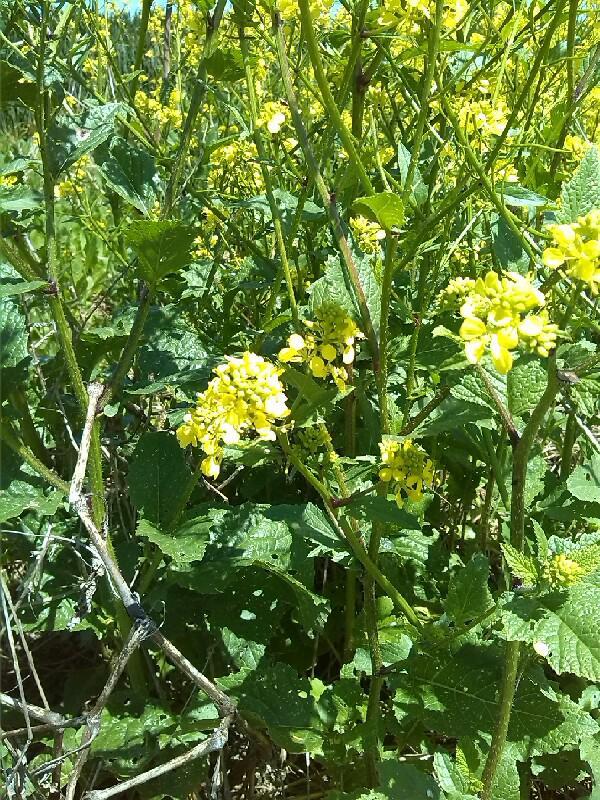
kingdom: Plantae
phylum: Tracheophyta
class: Magnoliopsida
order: Brassicales
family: Brassicaceae
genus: Sinapis
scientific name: Sinapis arvensis
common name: Charlock
